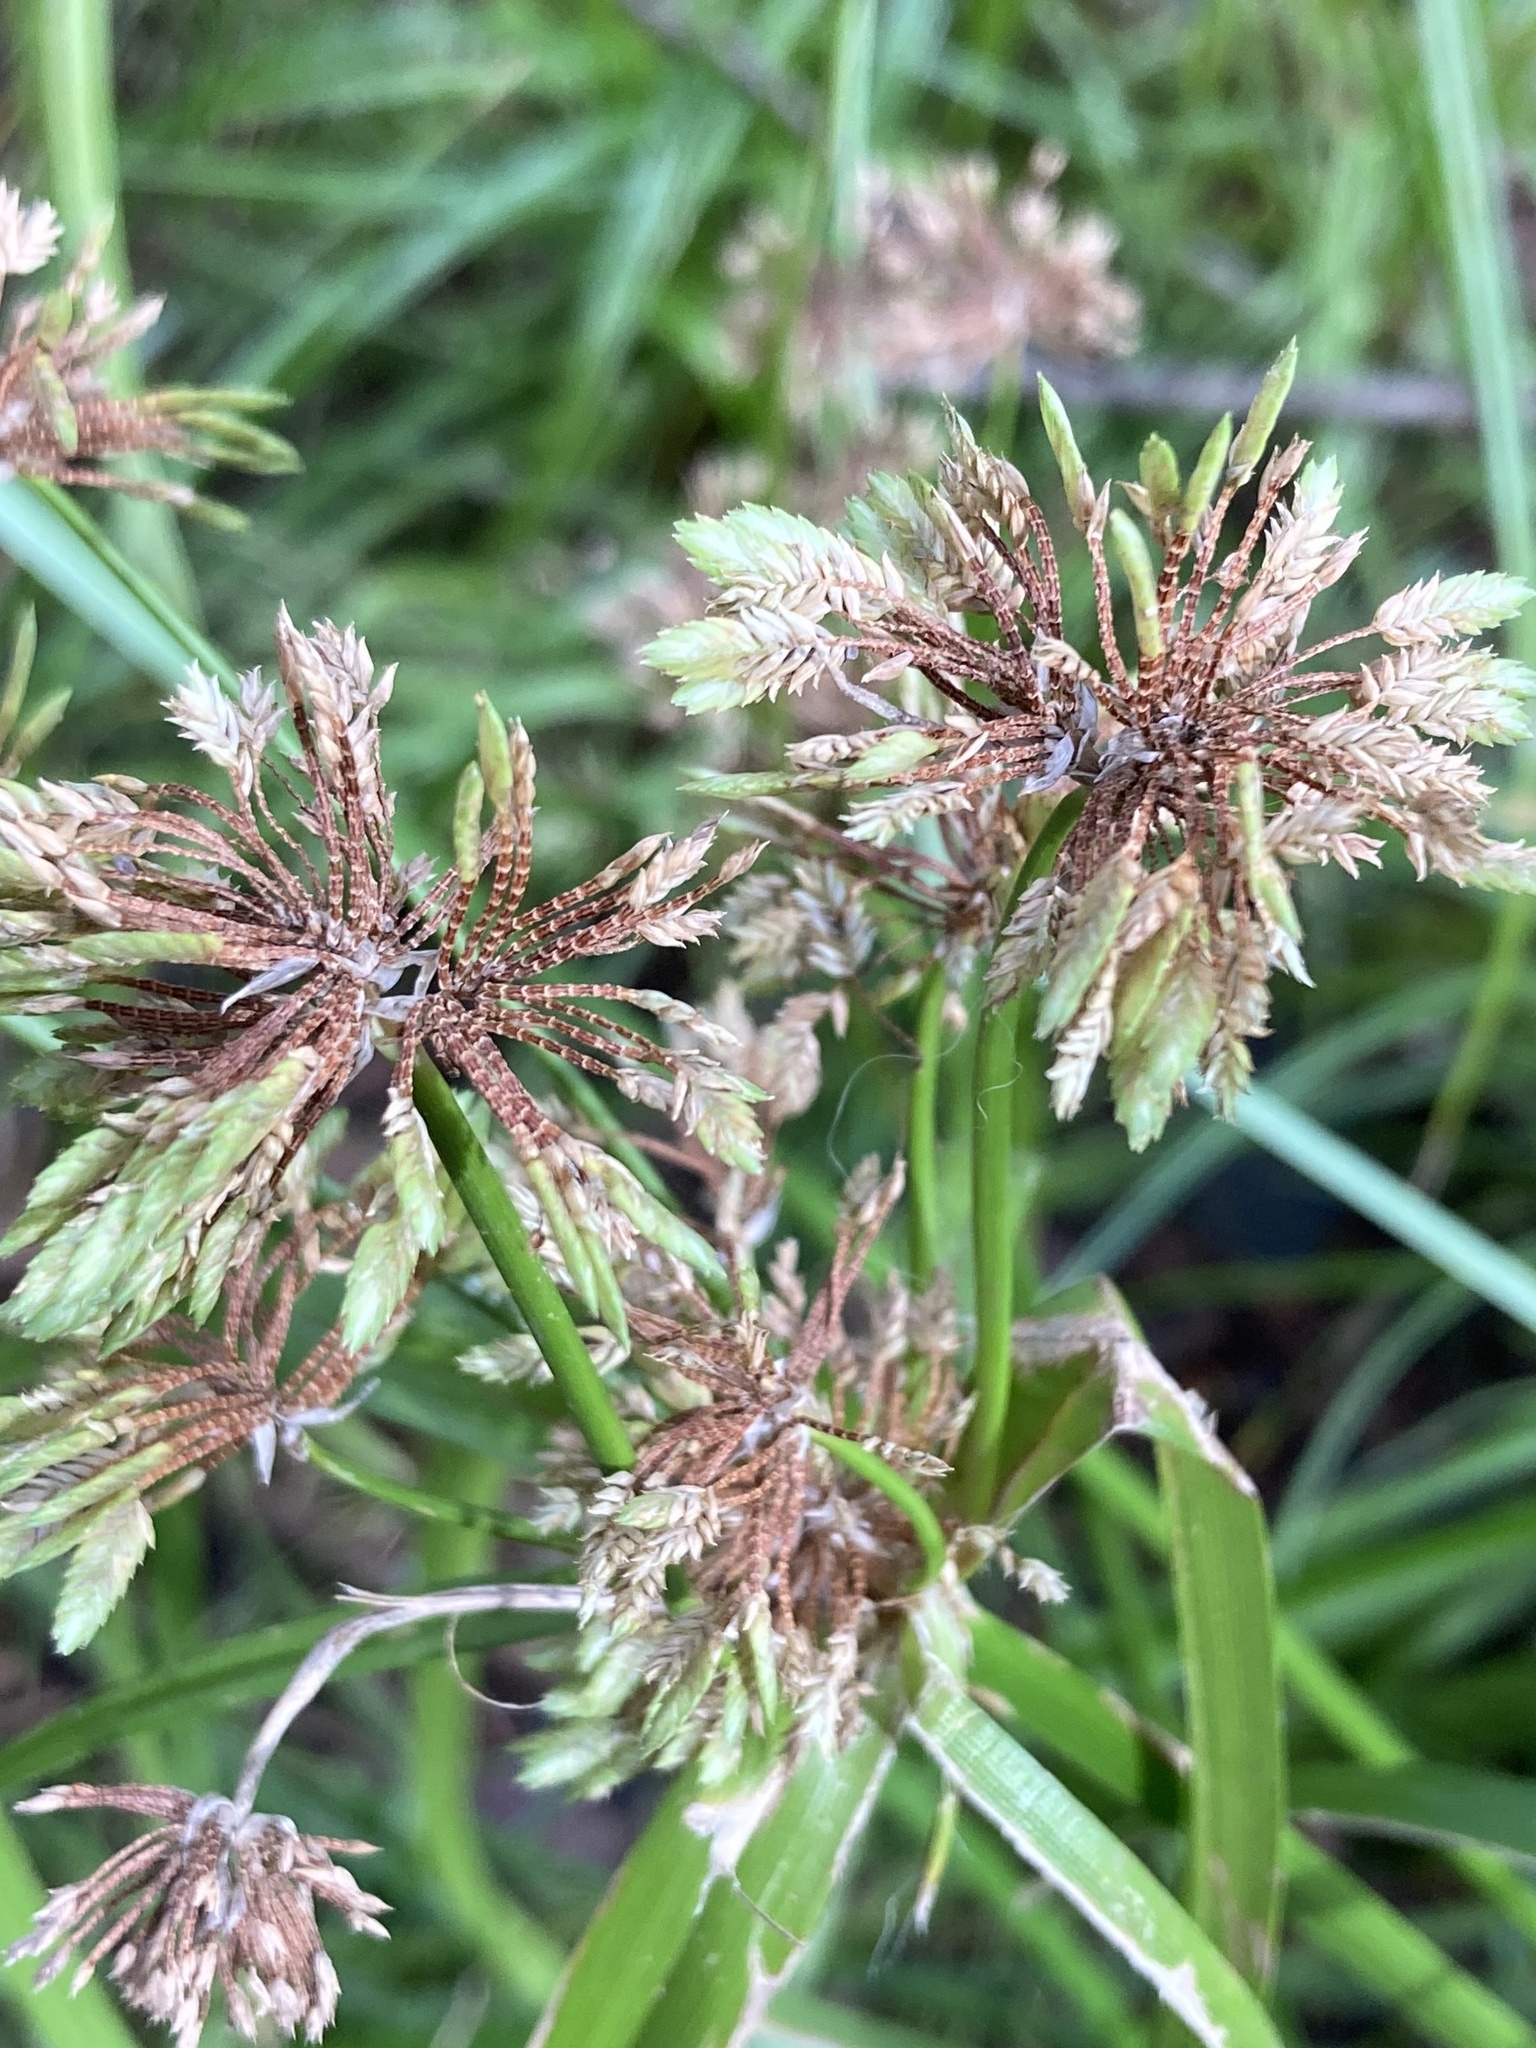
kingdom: Plantae
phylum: Tracheophyta
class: Liliopsida
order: Poales
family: Cyperaceae
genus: Cyperus
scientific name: Cyperus eragrostis
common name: Tall flatsedge
